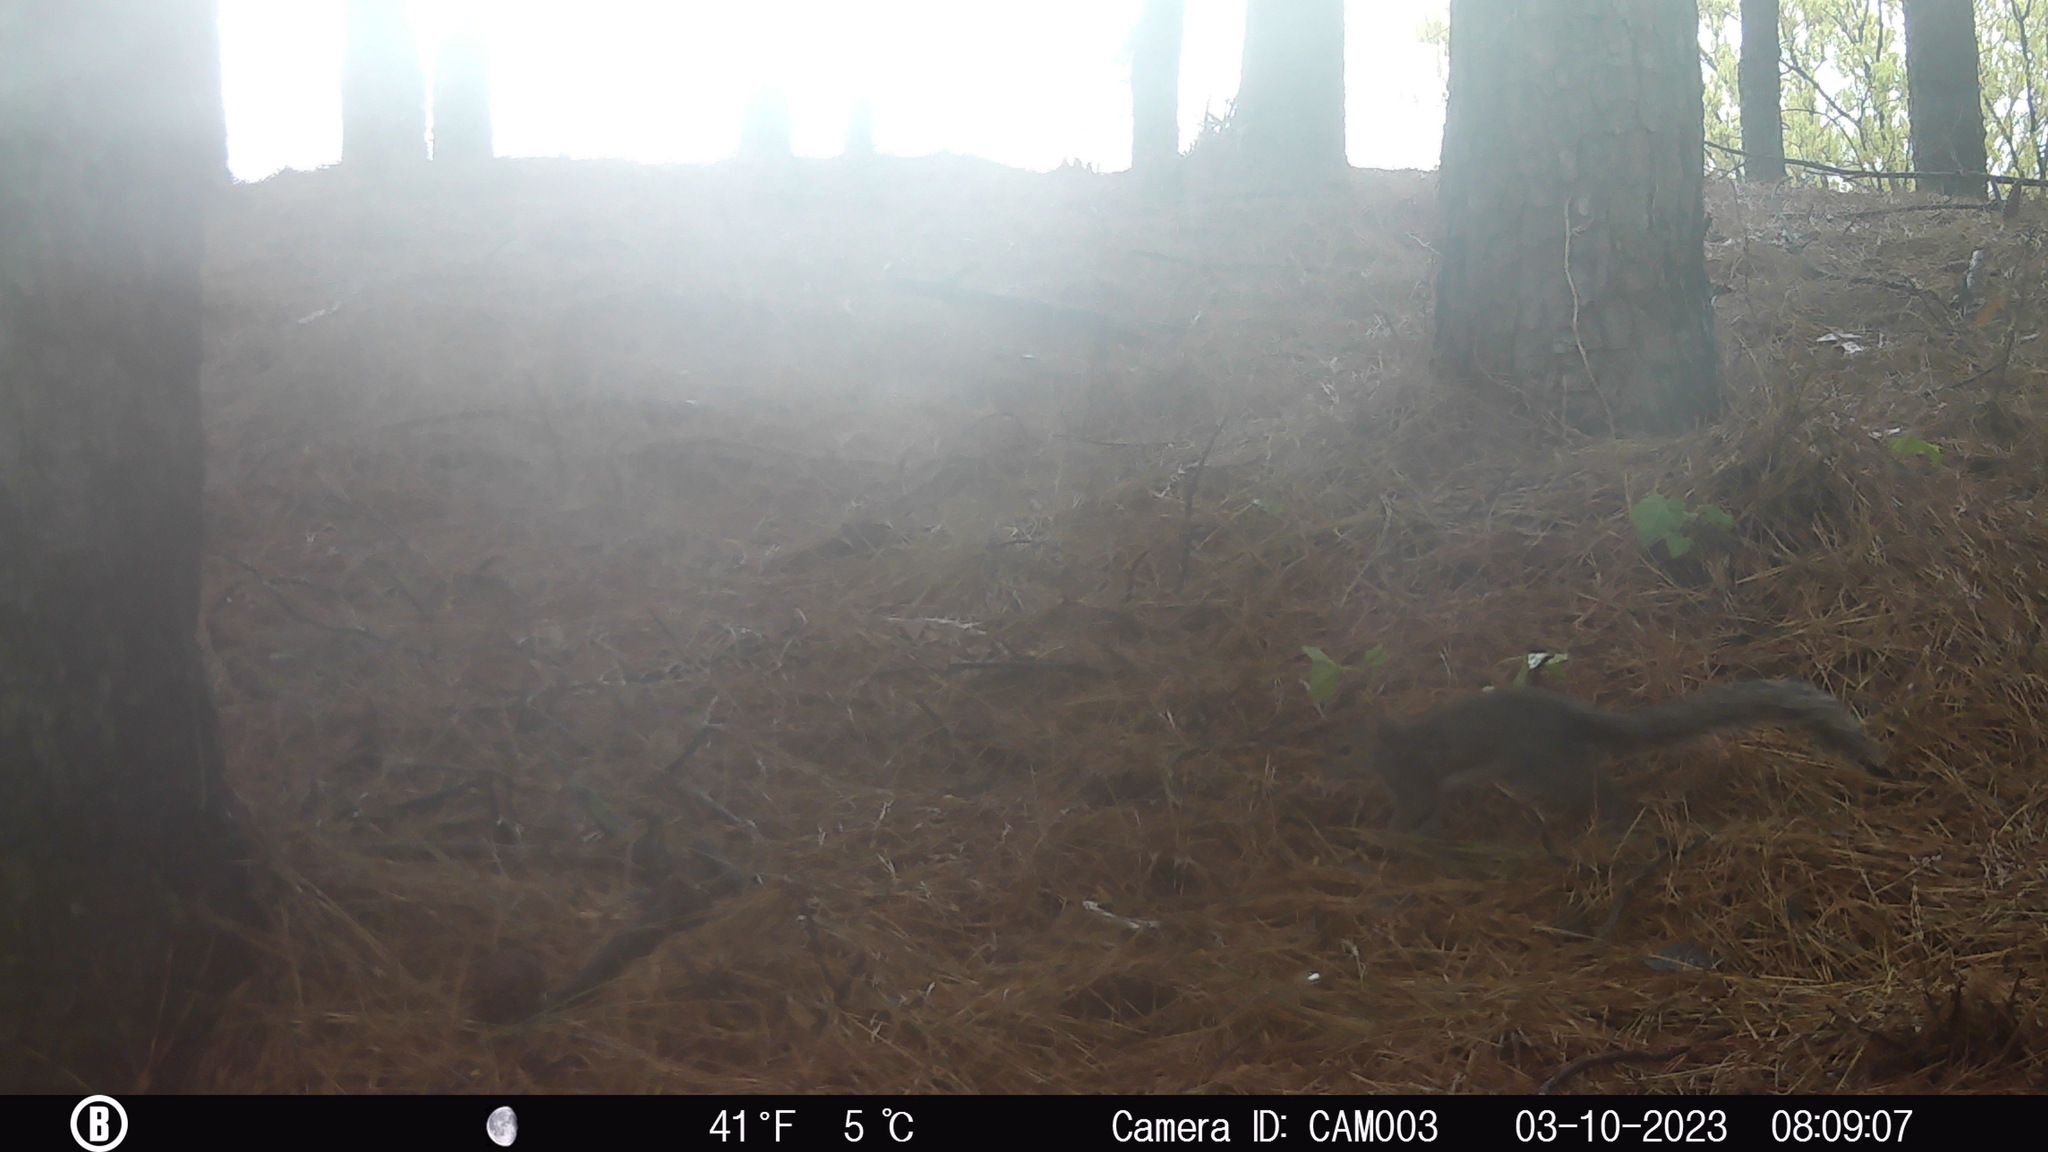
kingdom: Animalia
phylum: Chordata
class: Mammalia
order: Rodentia
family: Sciuridae
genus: Sciurus
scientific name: Sciurus carolinensis
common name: Eastern gray squirrel
